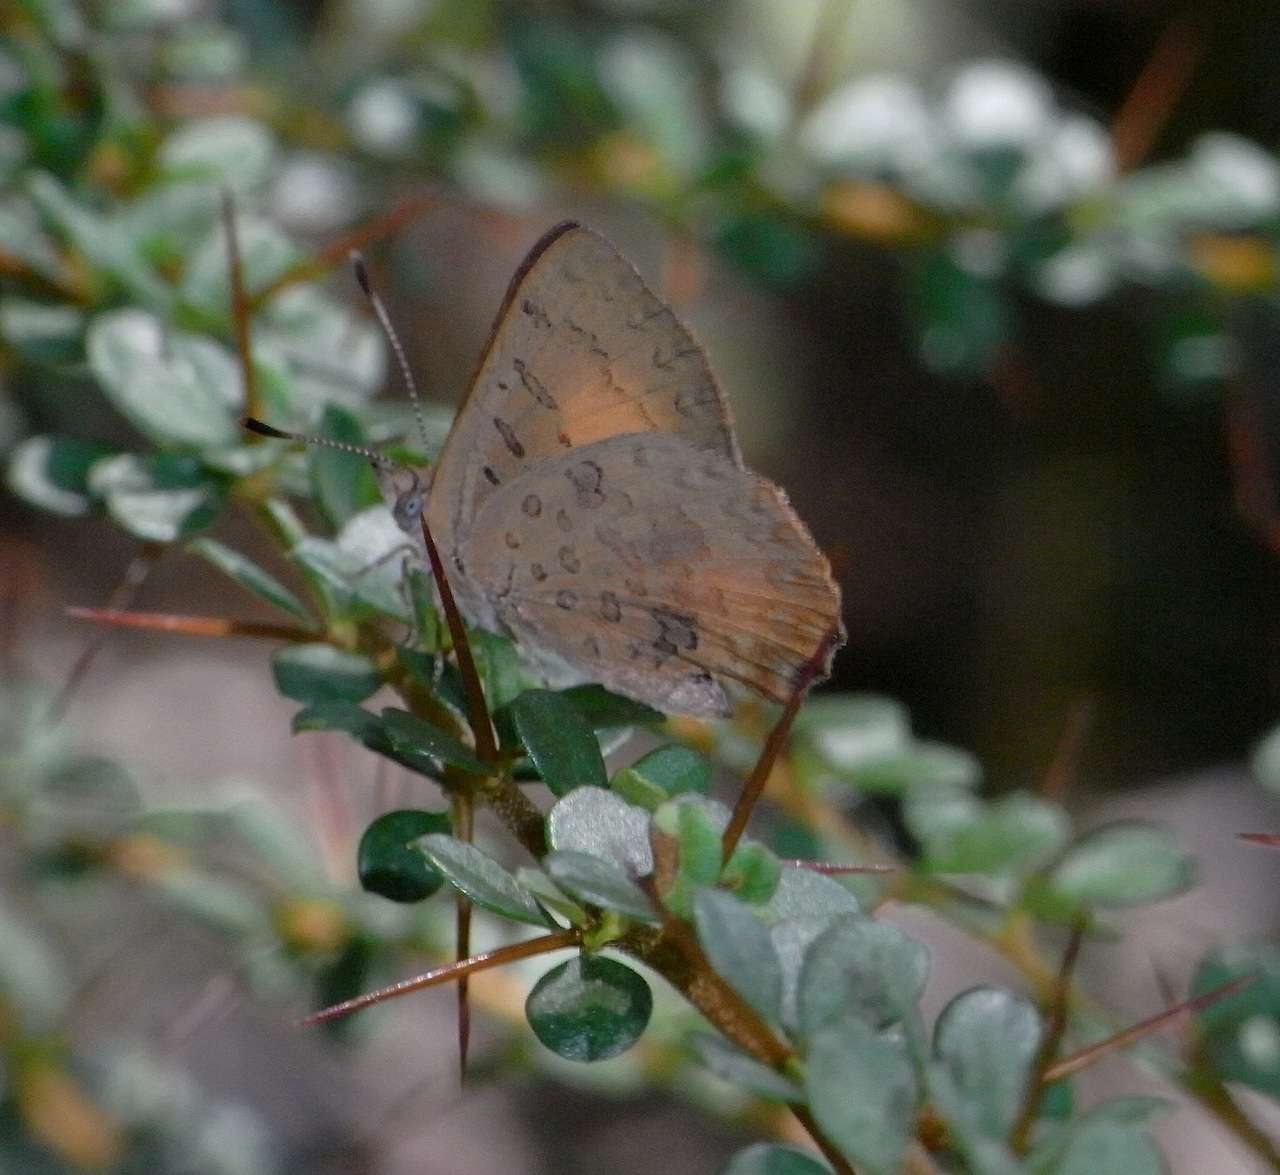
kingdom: Animalia
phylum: Arthropoda
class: Insecta
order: Lepidoptera
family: Lycaenidae
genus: Paralucia
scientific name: Paralucia aurifer
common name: Bright copper
